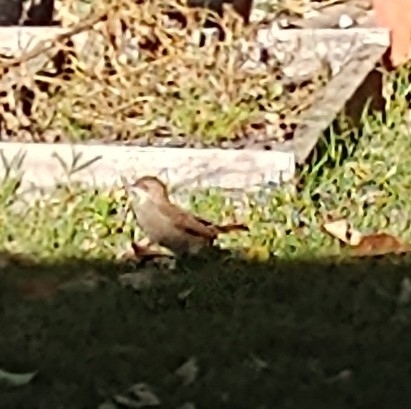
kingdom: Animalia
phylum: Chordata
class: Aves
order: Passeriformes
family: Furnariidae
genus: Furnarius
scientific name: Furnarius rufus
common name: Rufous hornero
